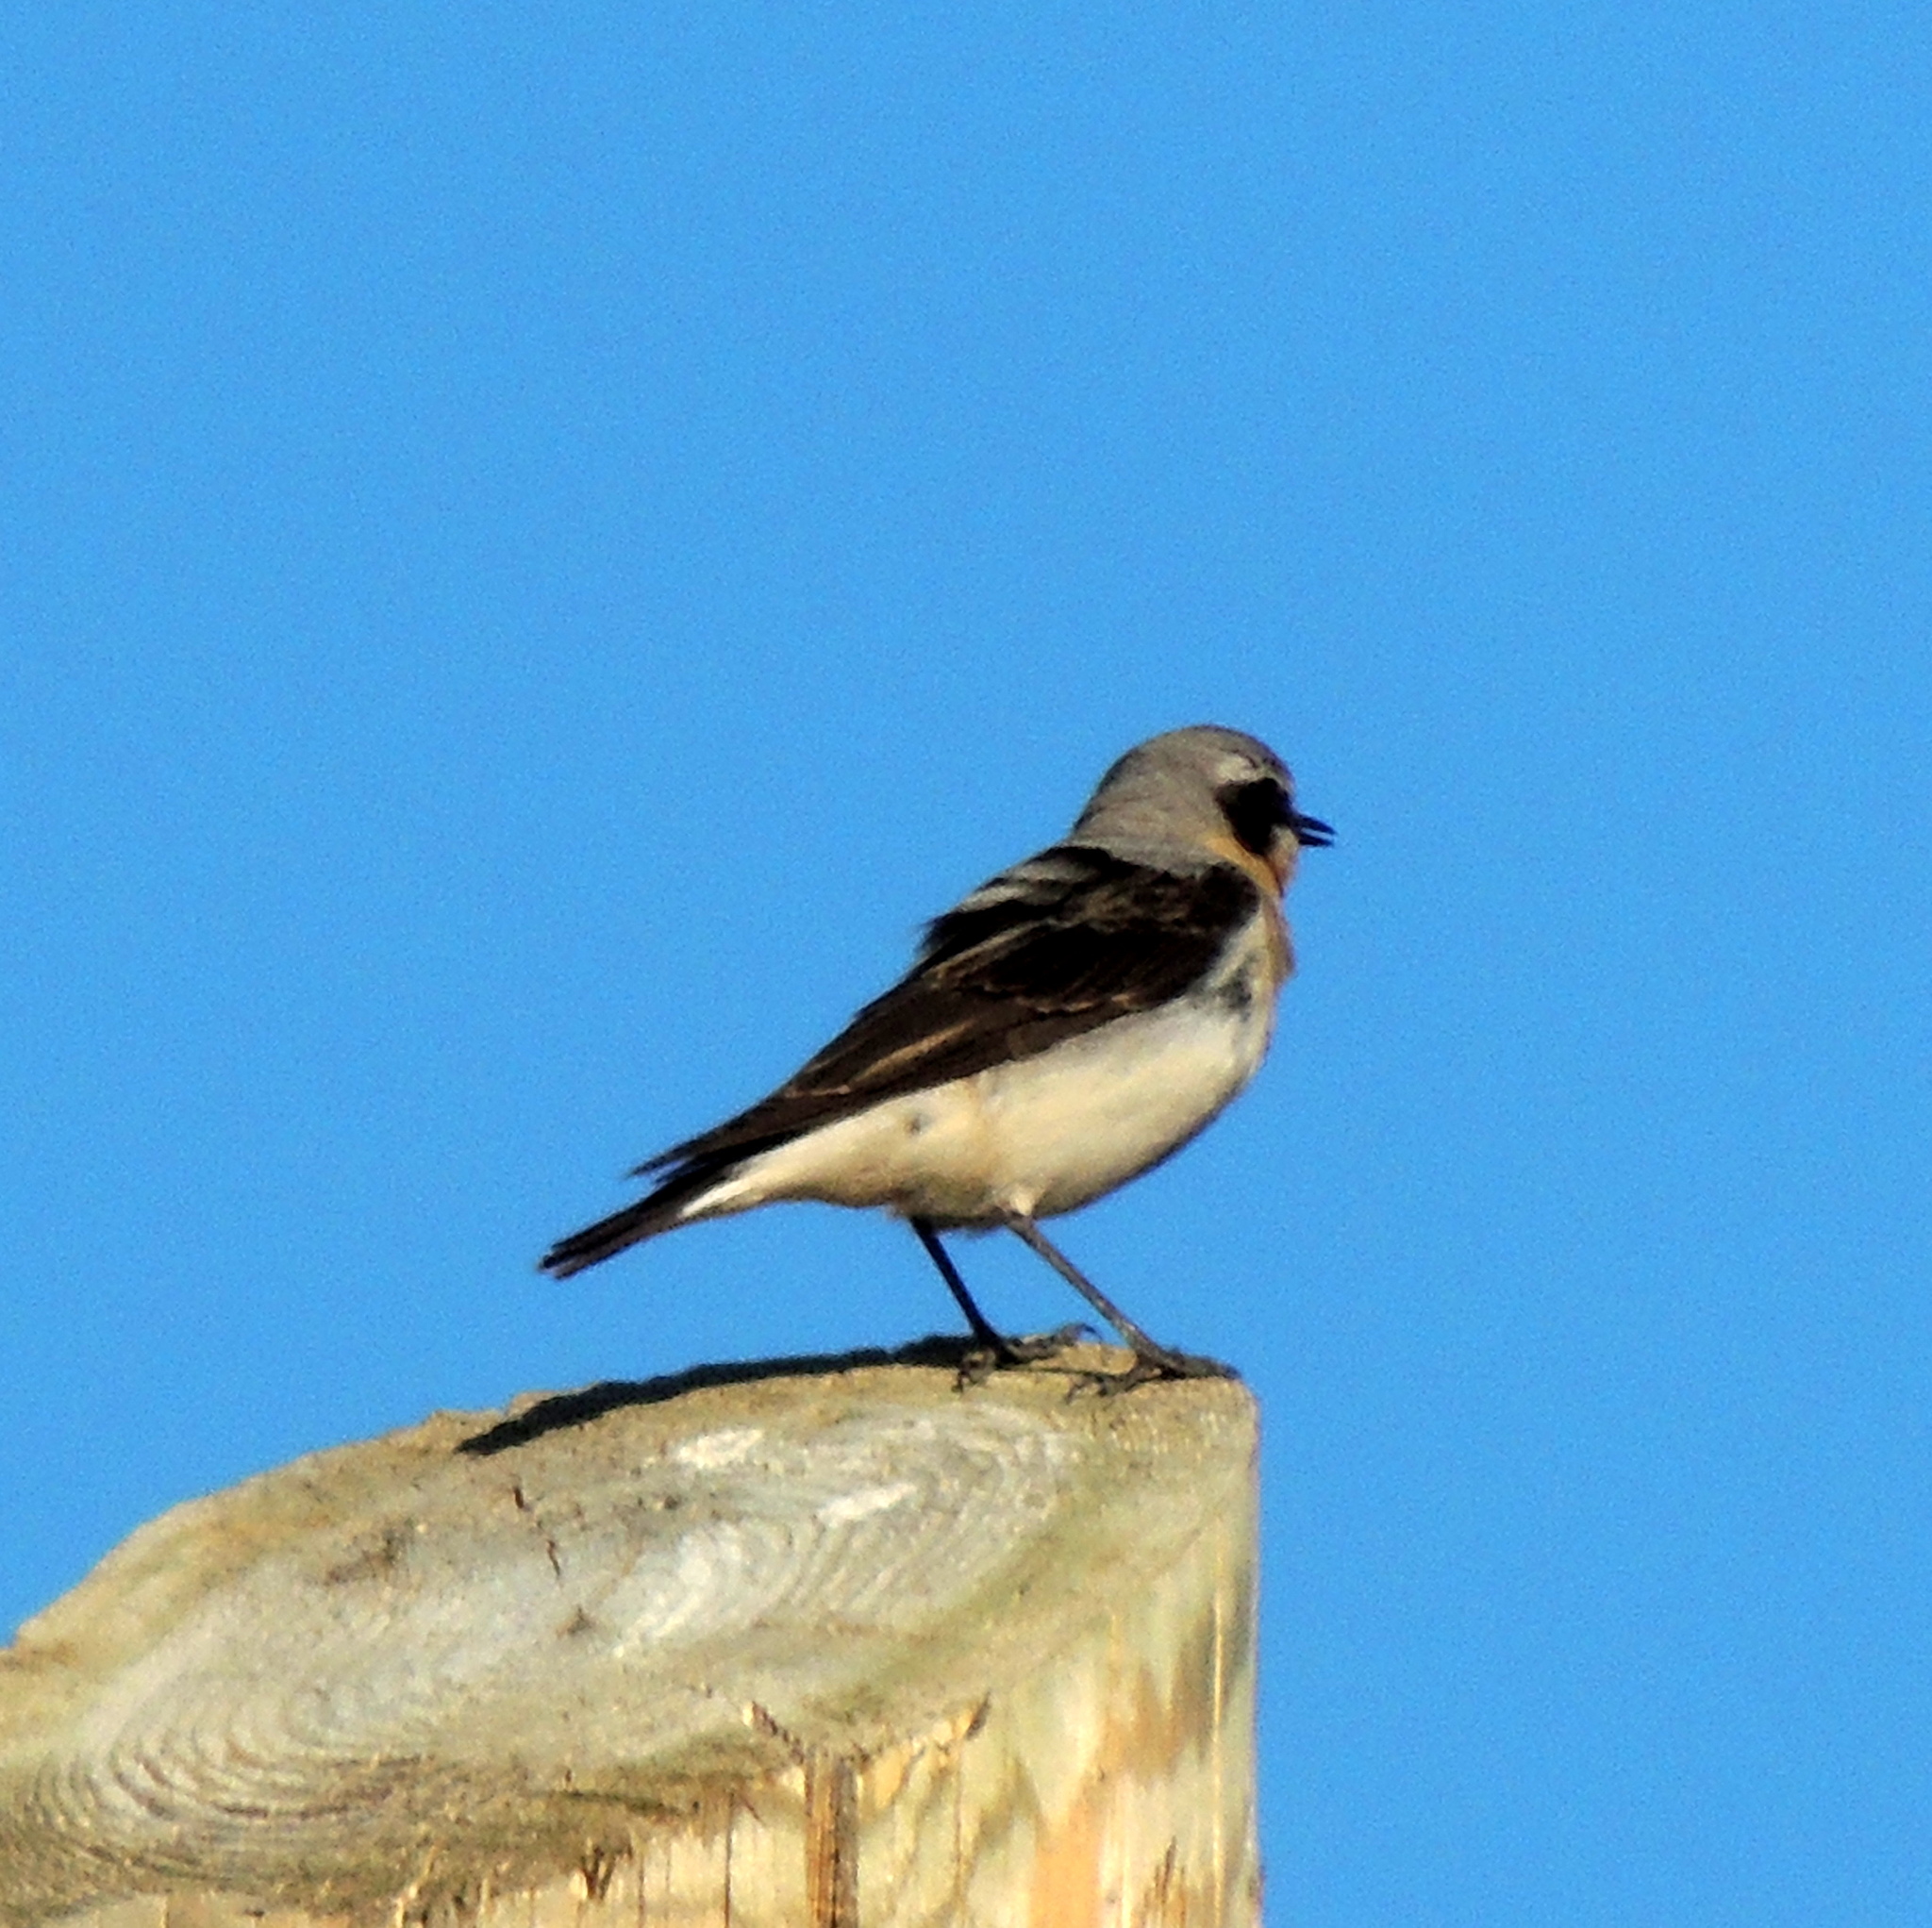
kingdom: Animalia
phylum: Chordata
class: Aves
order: Passeriformes
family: Muscicapidae
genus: Oenanthe
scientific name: Oenanthe oenanthe
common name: Northern wheatear
